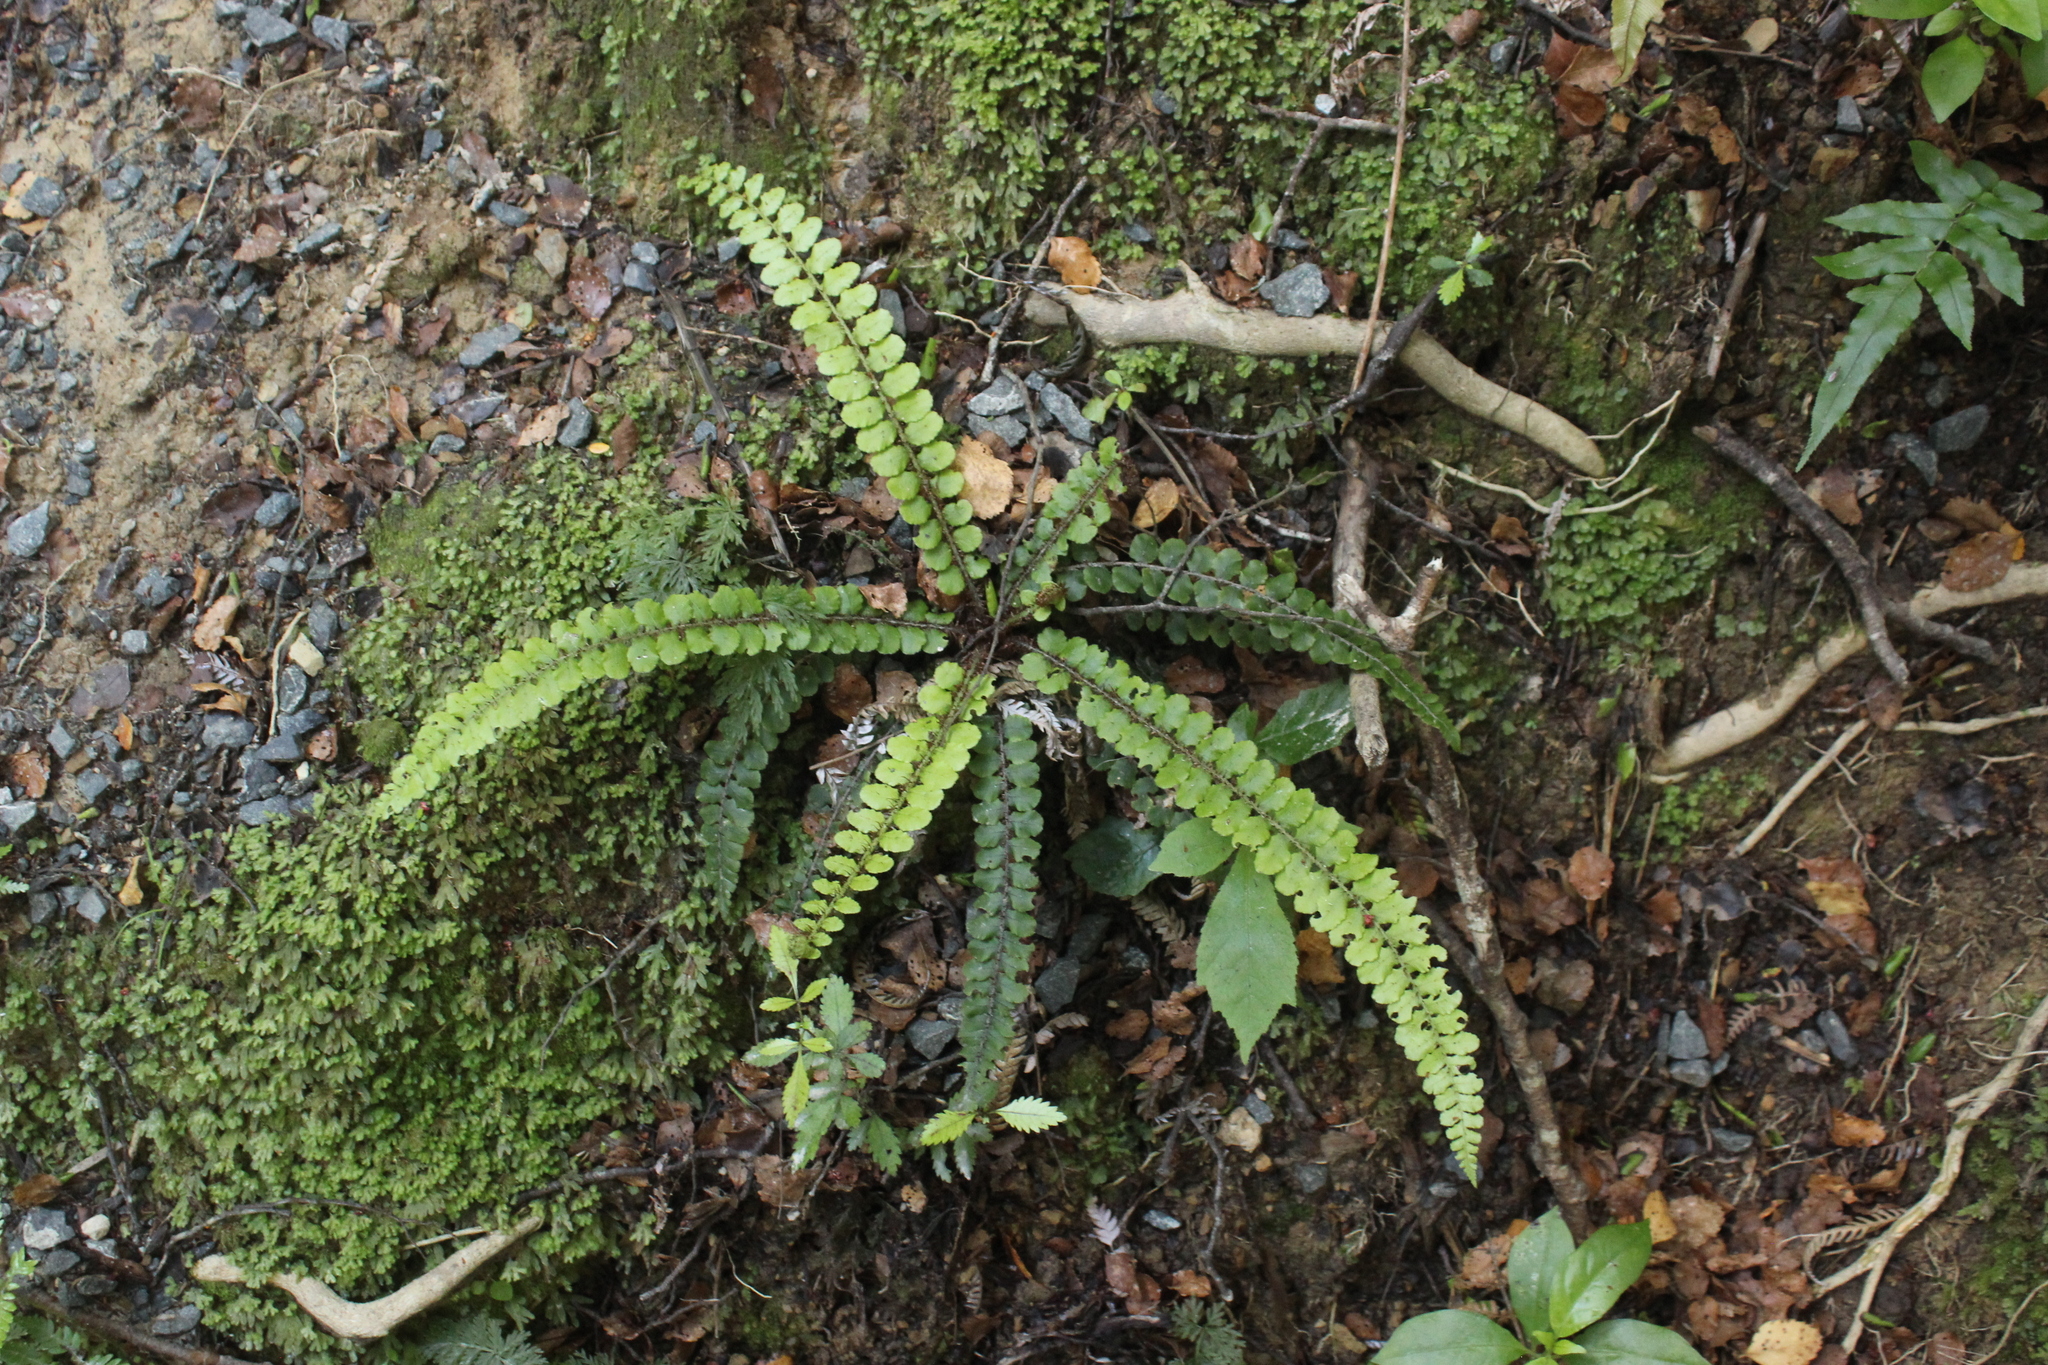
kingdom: Plantae
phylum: Tracheophyta
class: Polypodiopsida
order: Polypodiales
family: Blechnaceae
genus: Cranfillia
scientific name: Cranfillia fluviatilis
